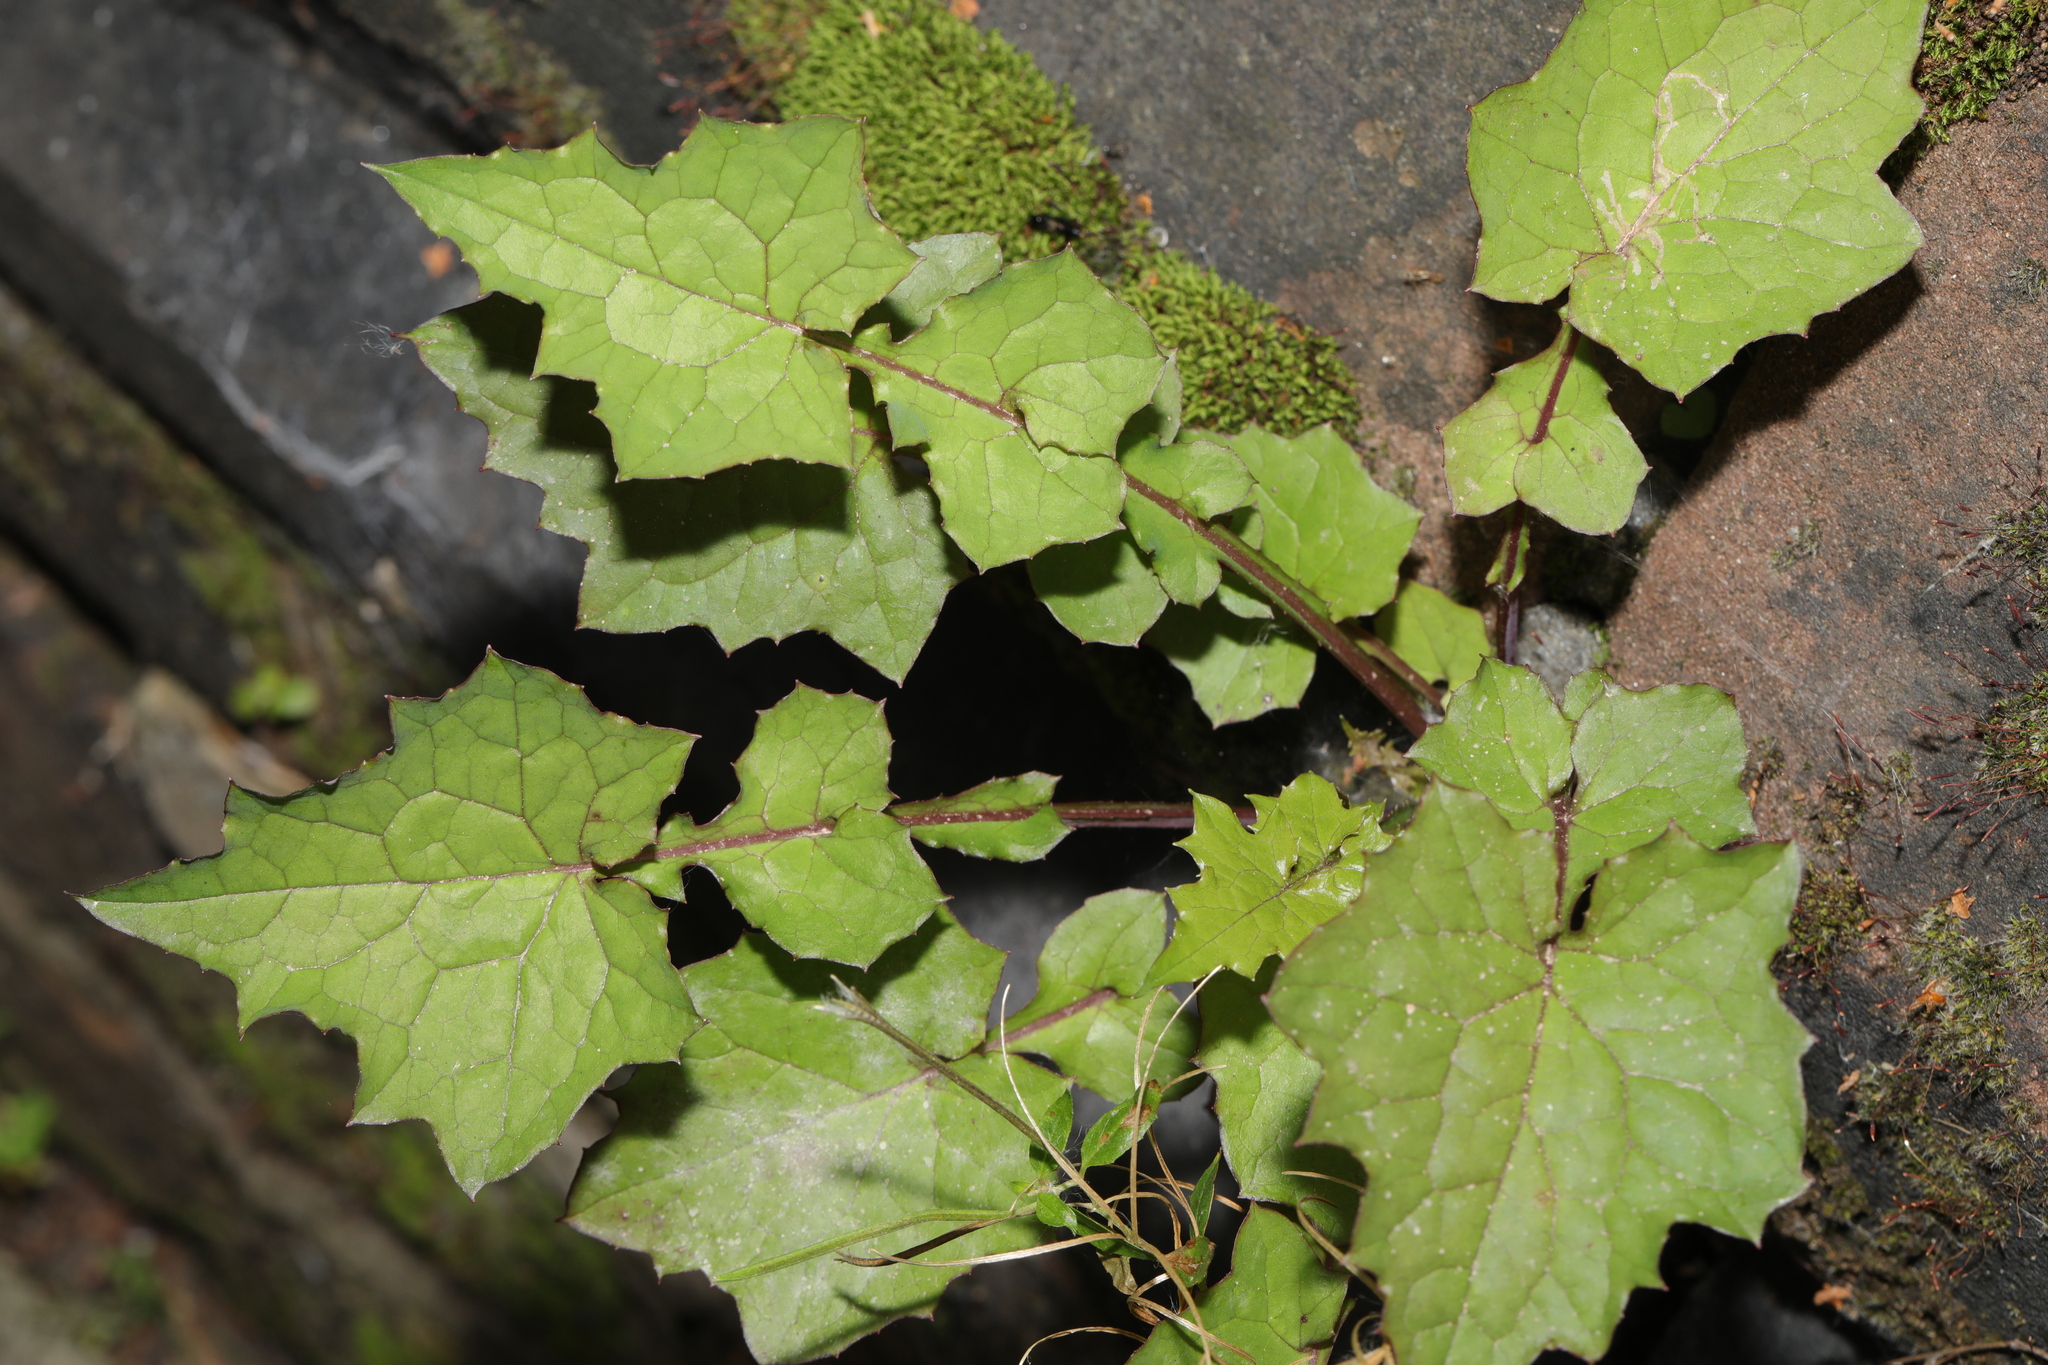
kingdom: Plantae
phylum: Tracheophyta
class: Magnoliopsida
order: Asterales
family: Asteraceae
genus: Mycelis
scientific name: Mycelis muralis
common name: Wall lettuce
